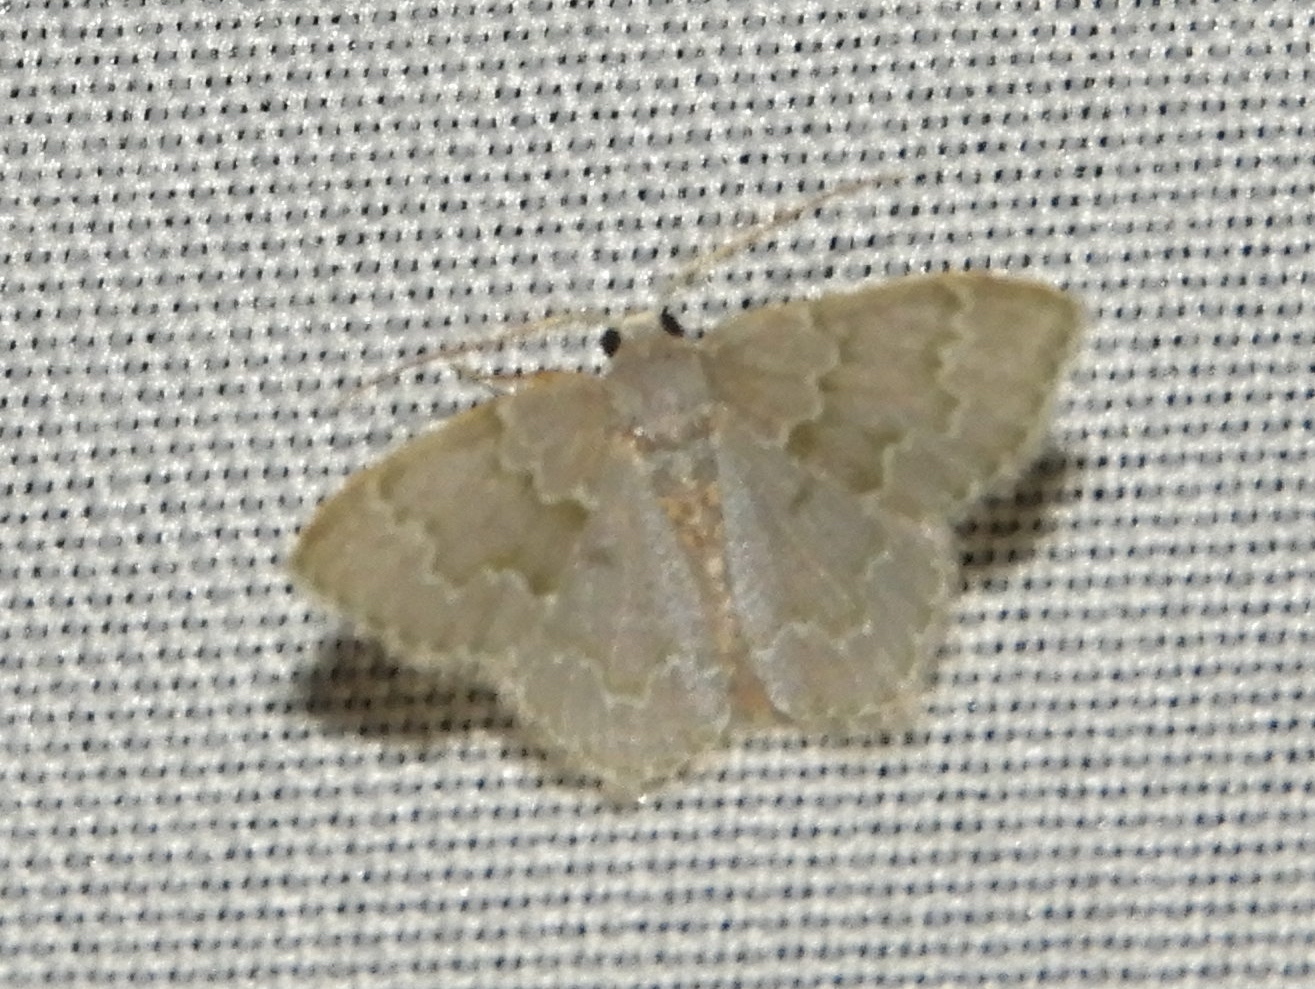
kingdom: Animalia
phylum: Arthropoda
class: Insecta
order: Lepidoptera
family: Geometridae
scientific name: Geometridae
